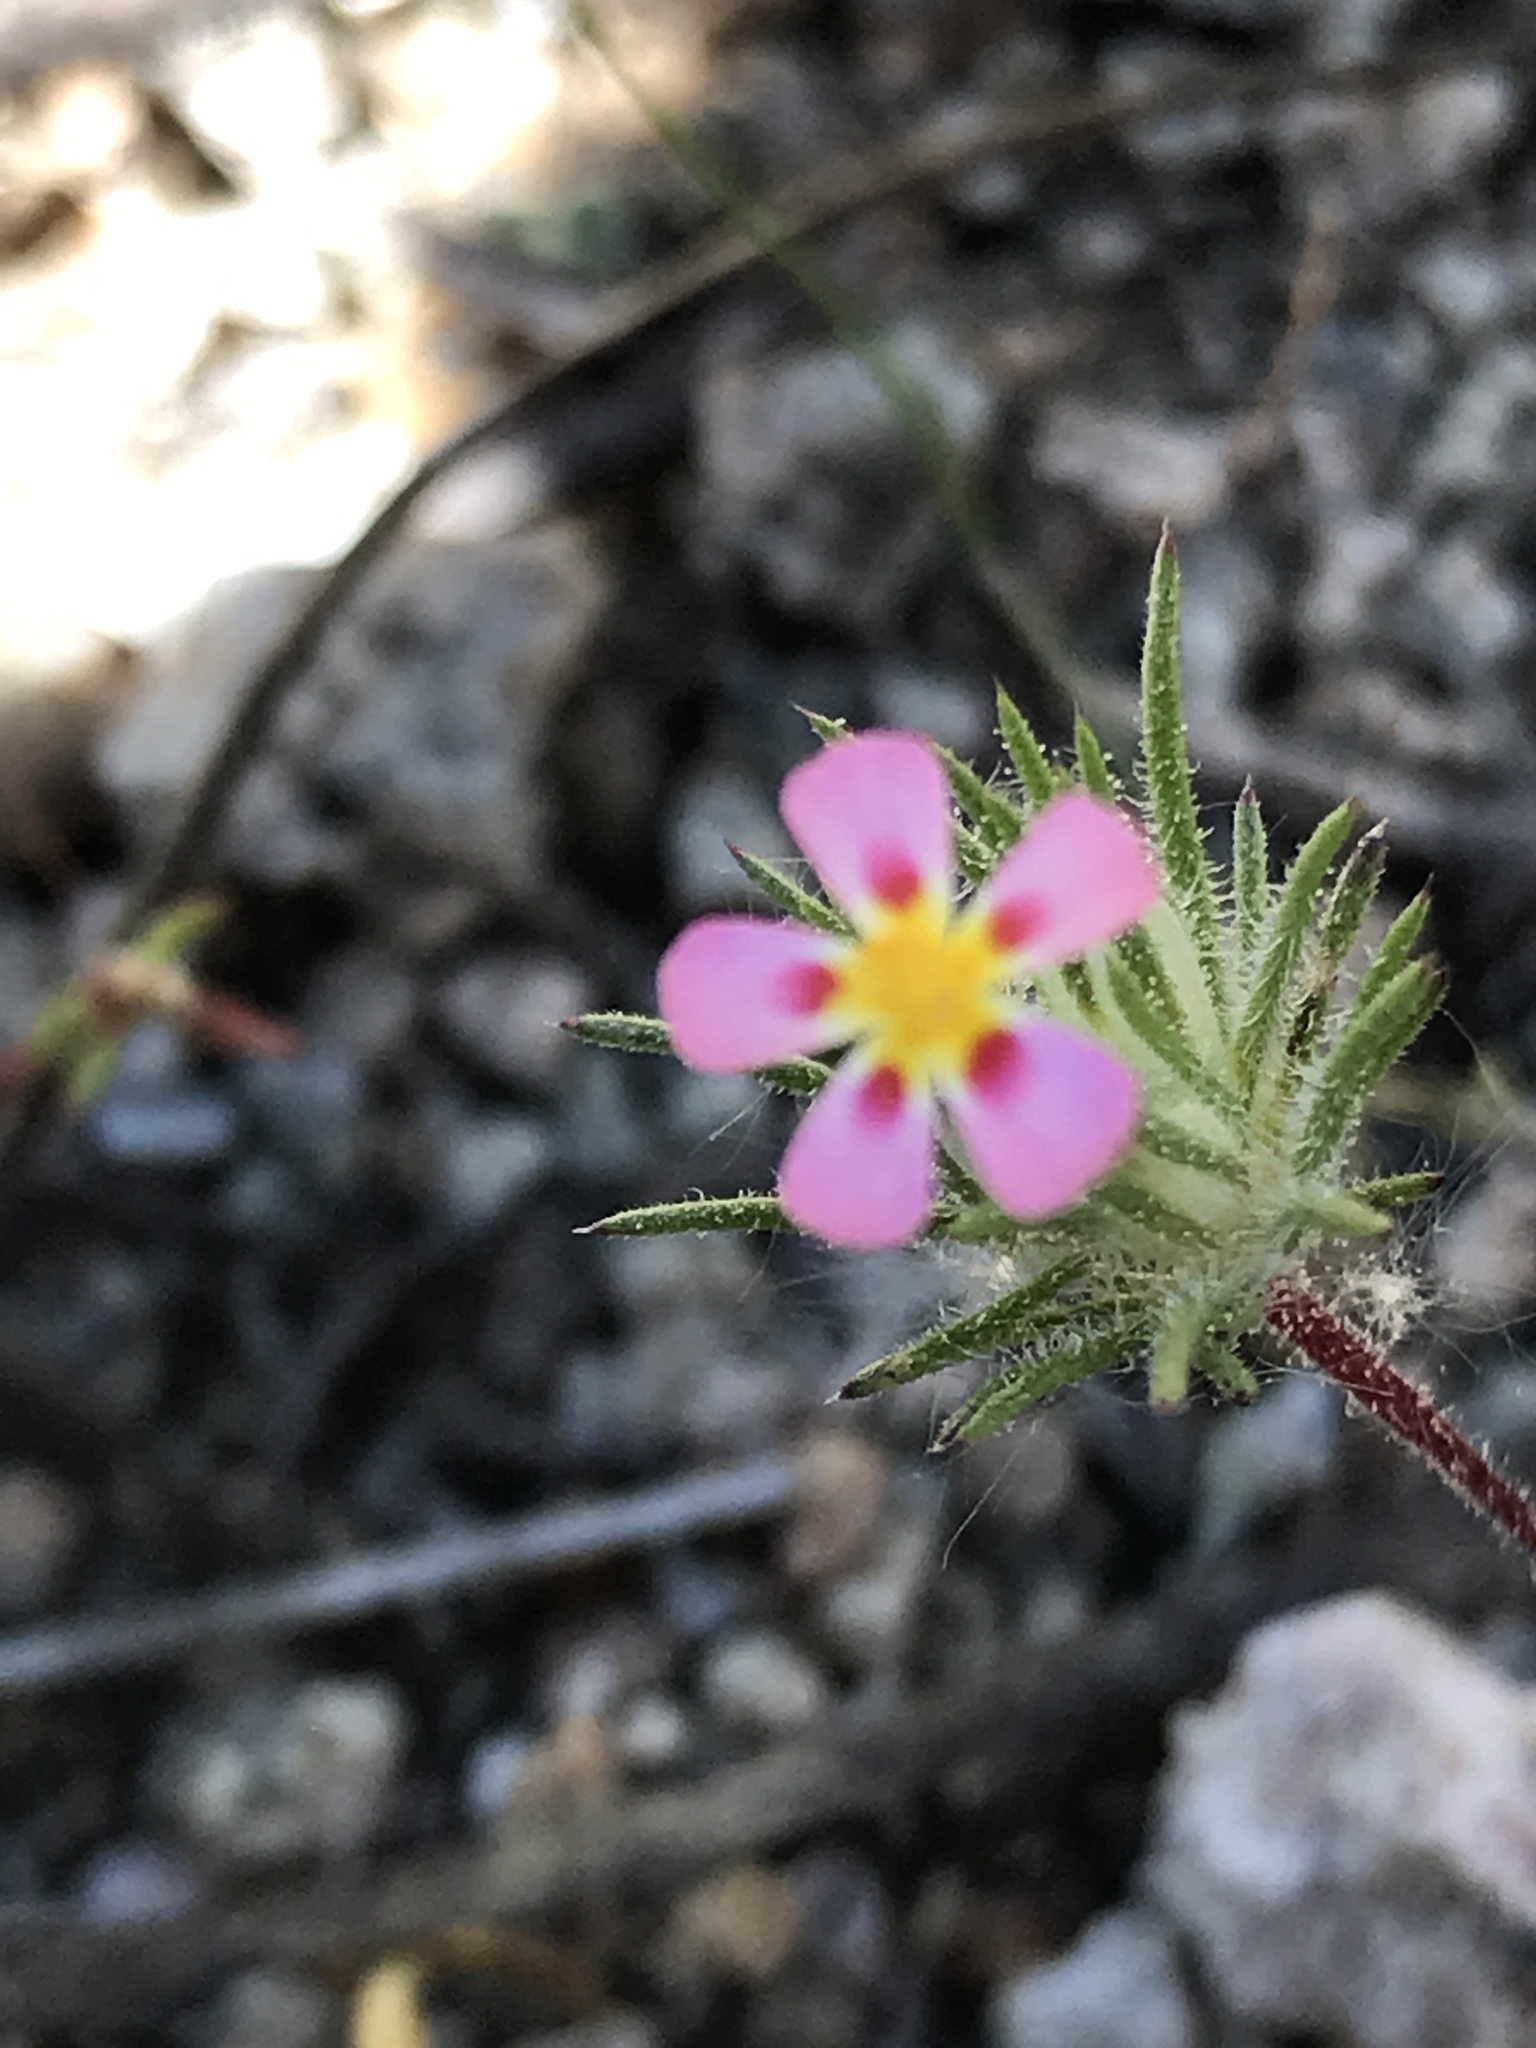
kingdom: Plantae
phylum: Tracheophyta
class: Magnoliopsida
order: Ericales
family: Polemoniaceae
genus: Leptosiphon
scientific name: Leptosiphon ciliatus
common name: Whiskerbrush
